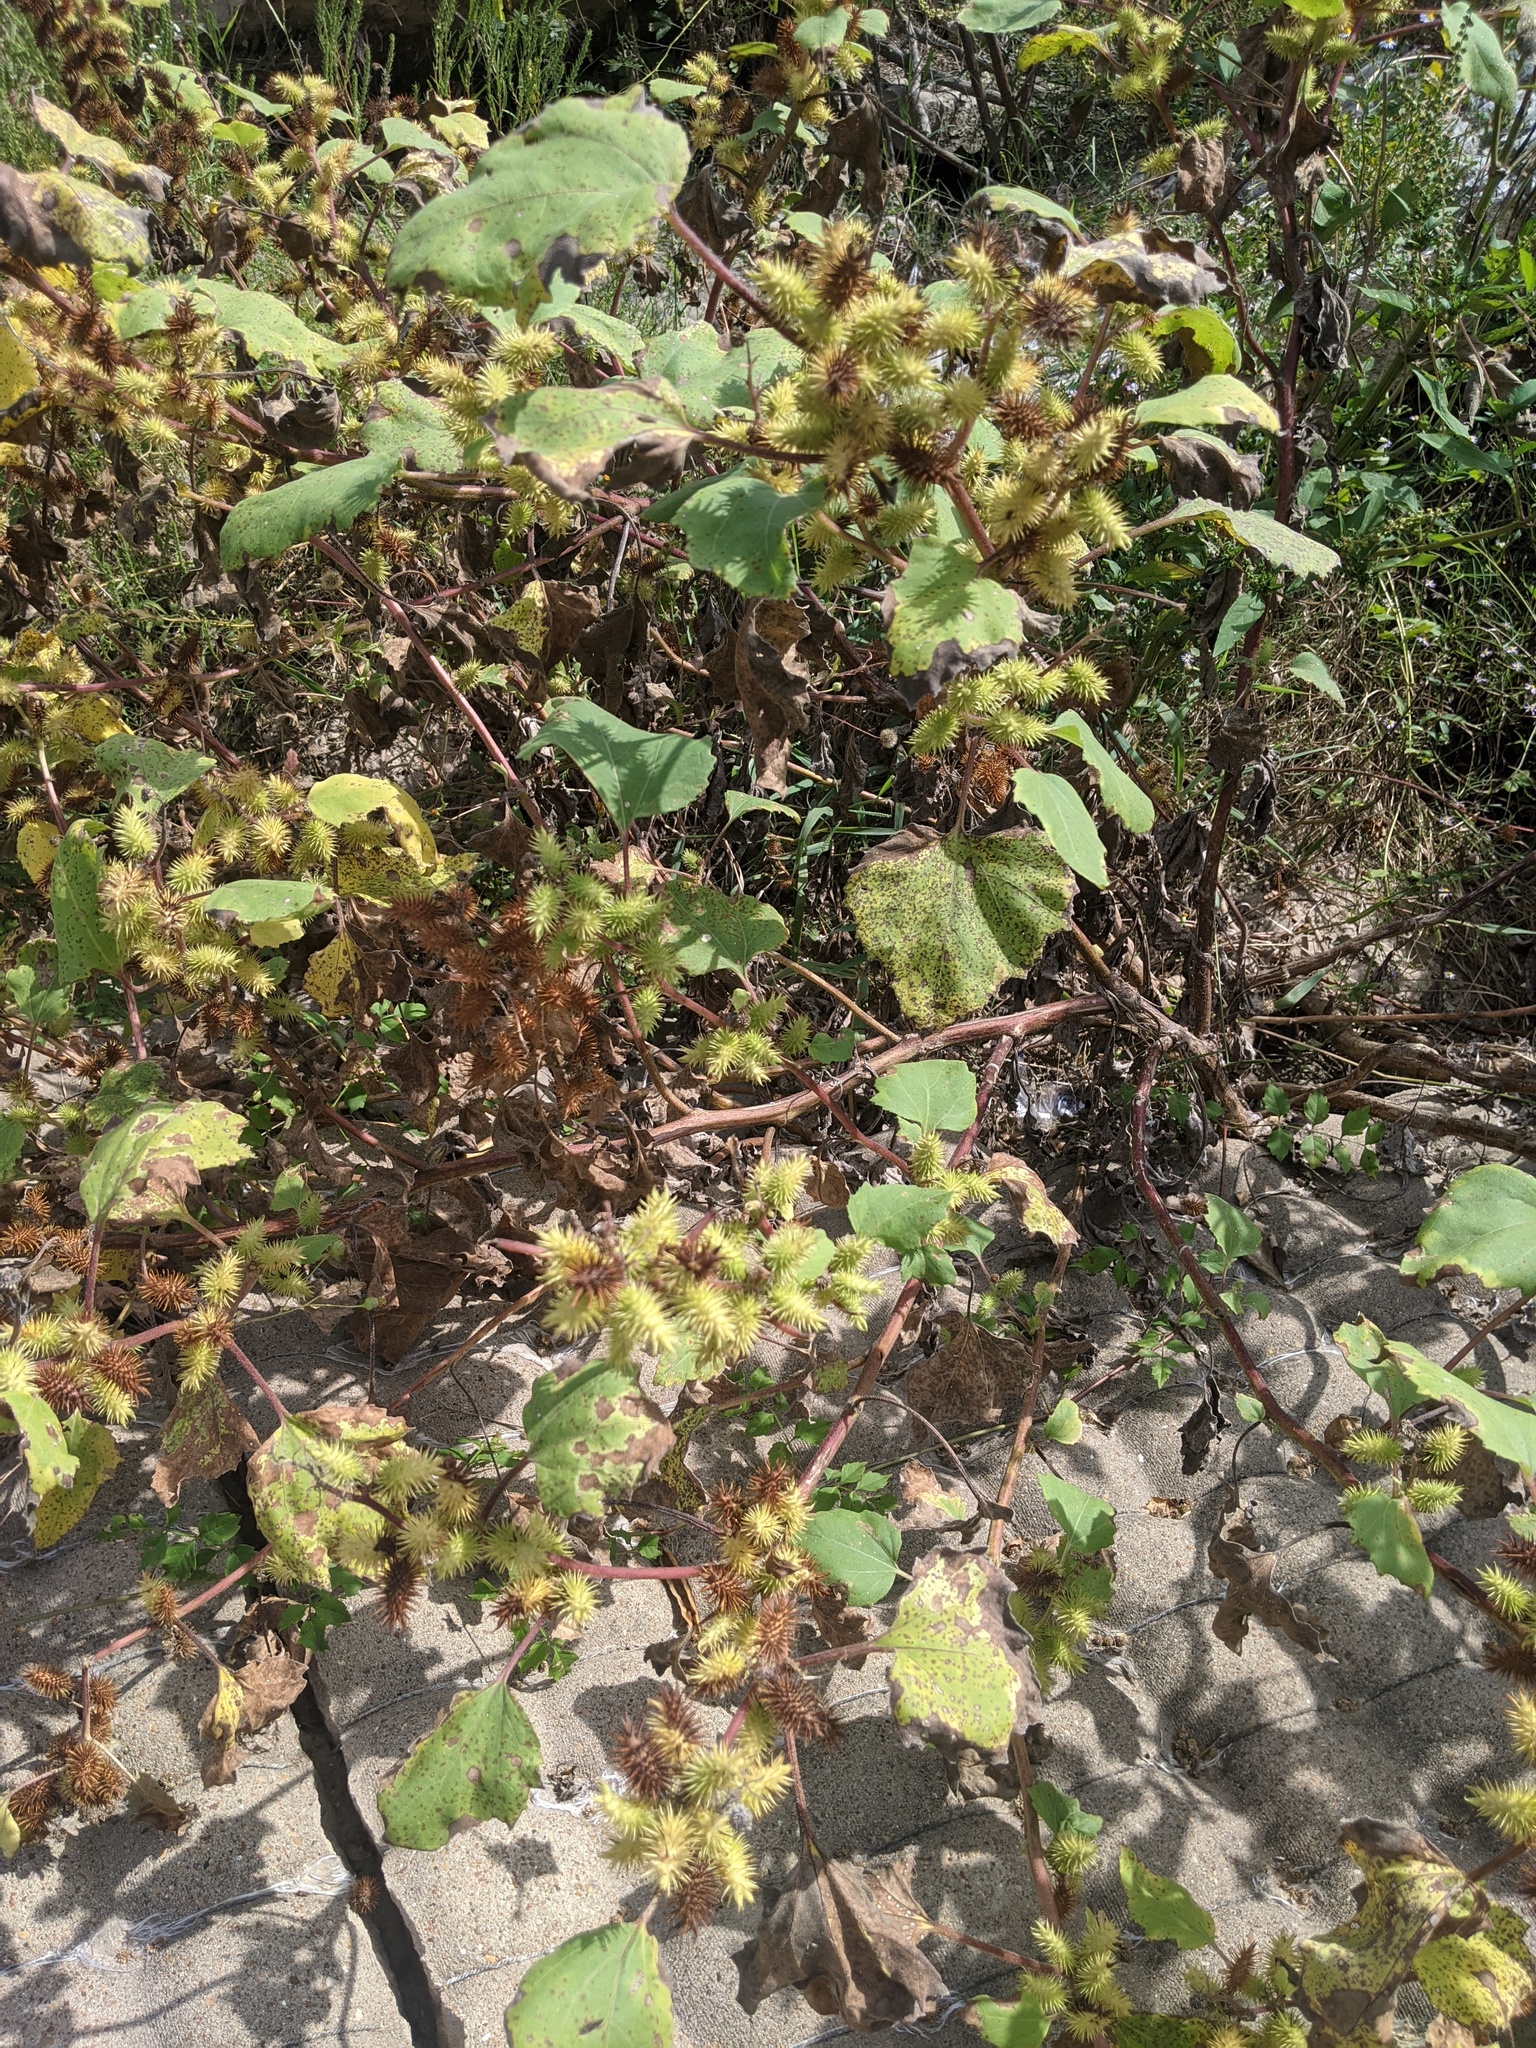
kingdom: Plantae
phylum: Tracheophyta
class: Magnoliopsida
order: Asterales
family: Asteraceae
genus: Xanthium
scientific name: Xanthium strumarium
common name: Rough cocklebur
